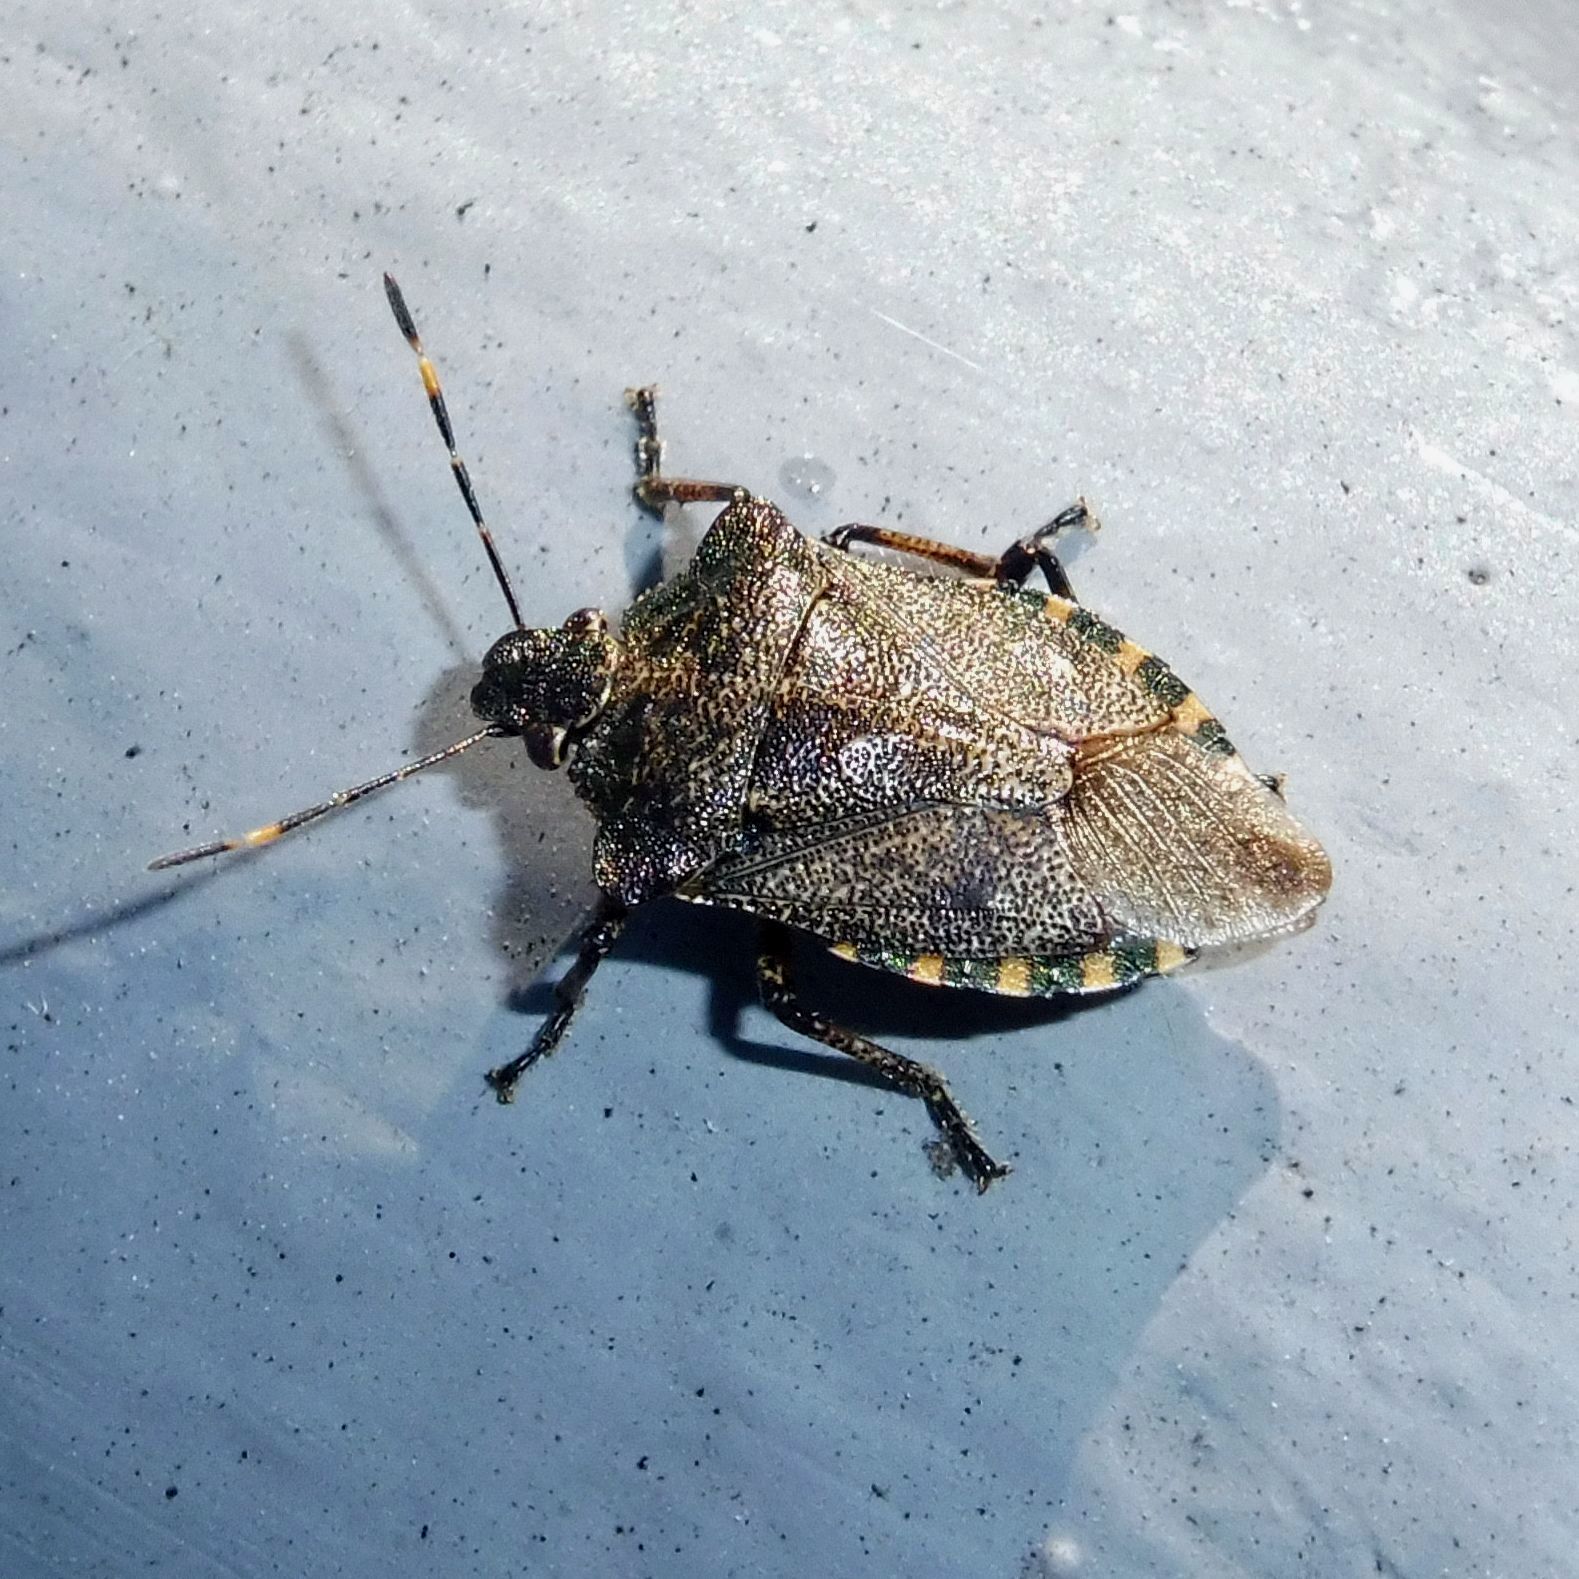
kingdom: Animalia
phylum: Arthropoda
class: Insecta
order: Hemiptera
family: Pentatomidae
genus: Troilus
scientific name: Troilus luridus
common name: Bronze shieldbug
